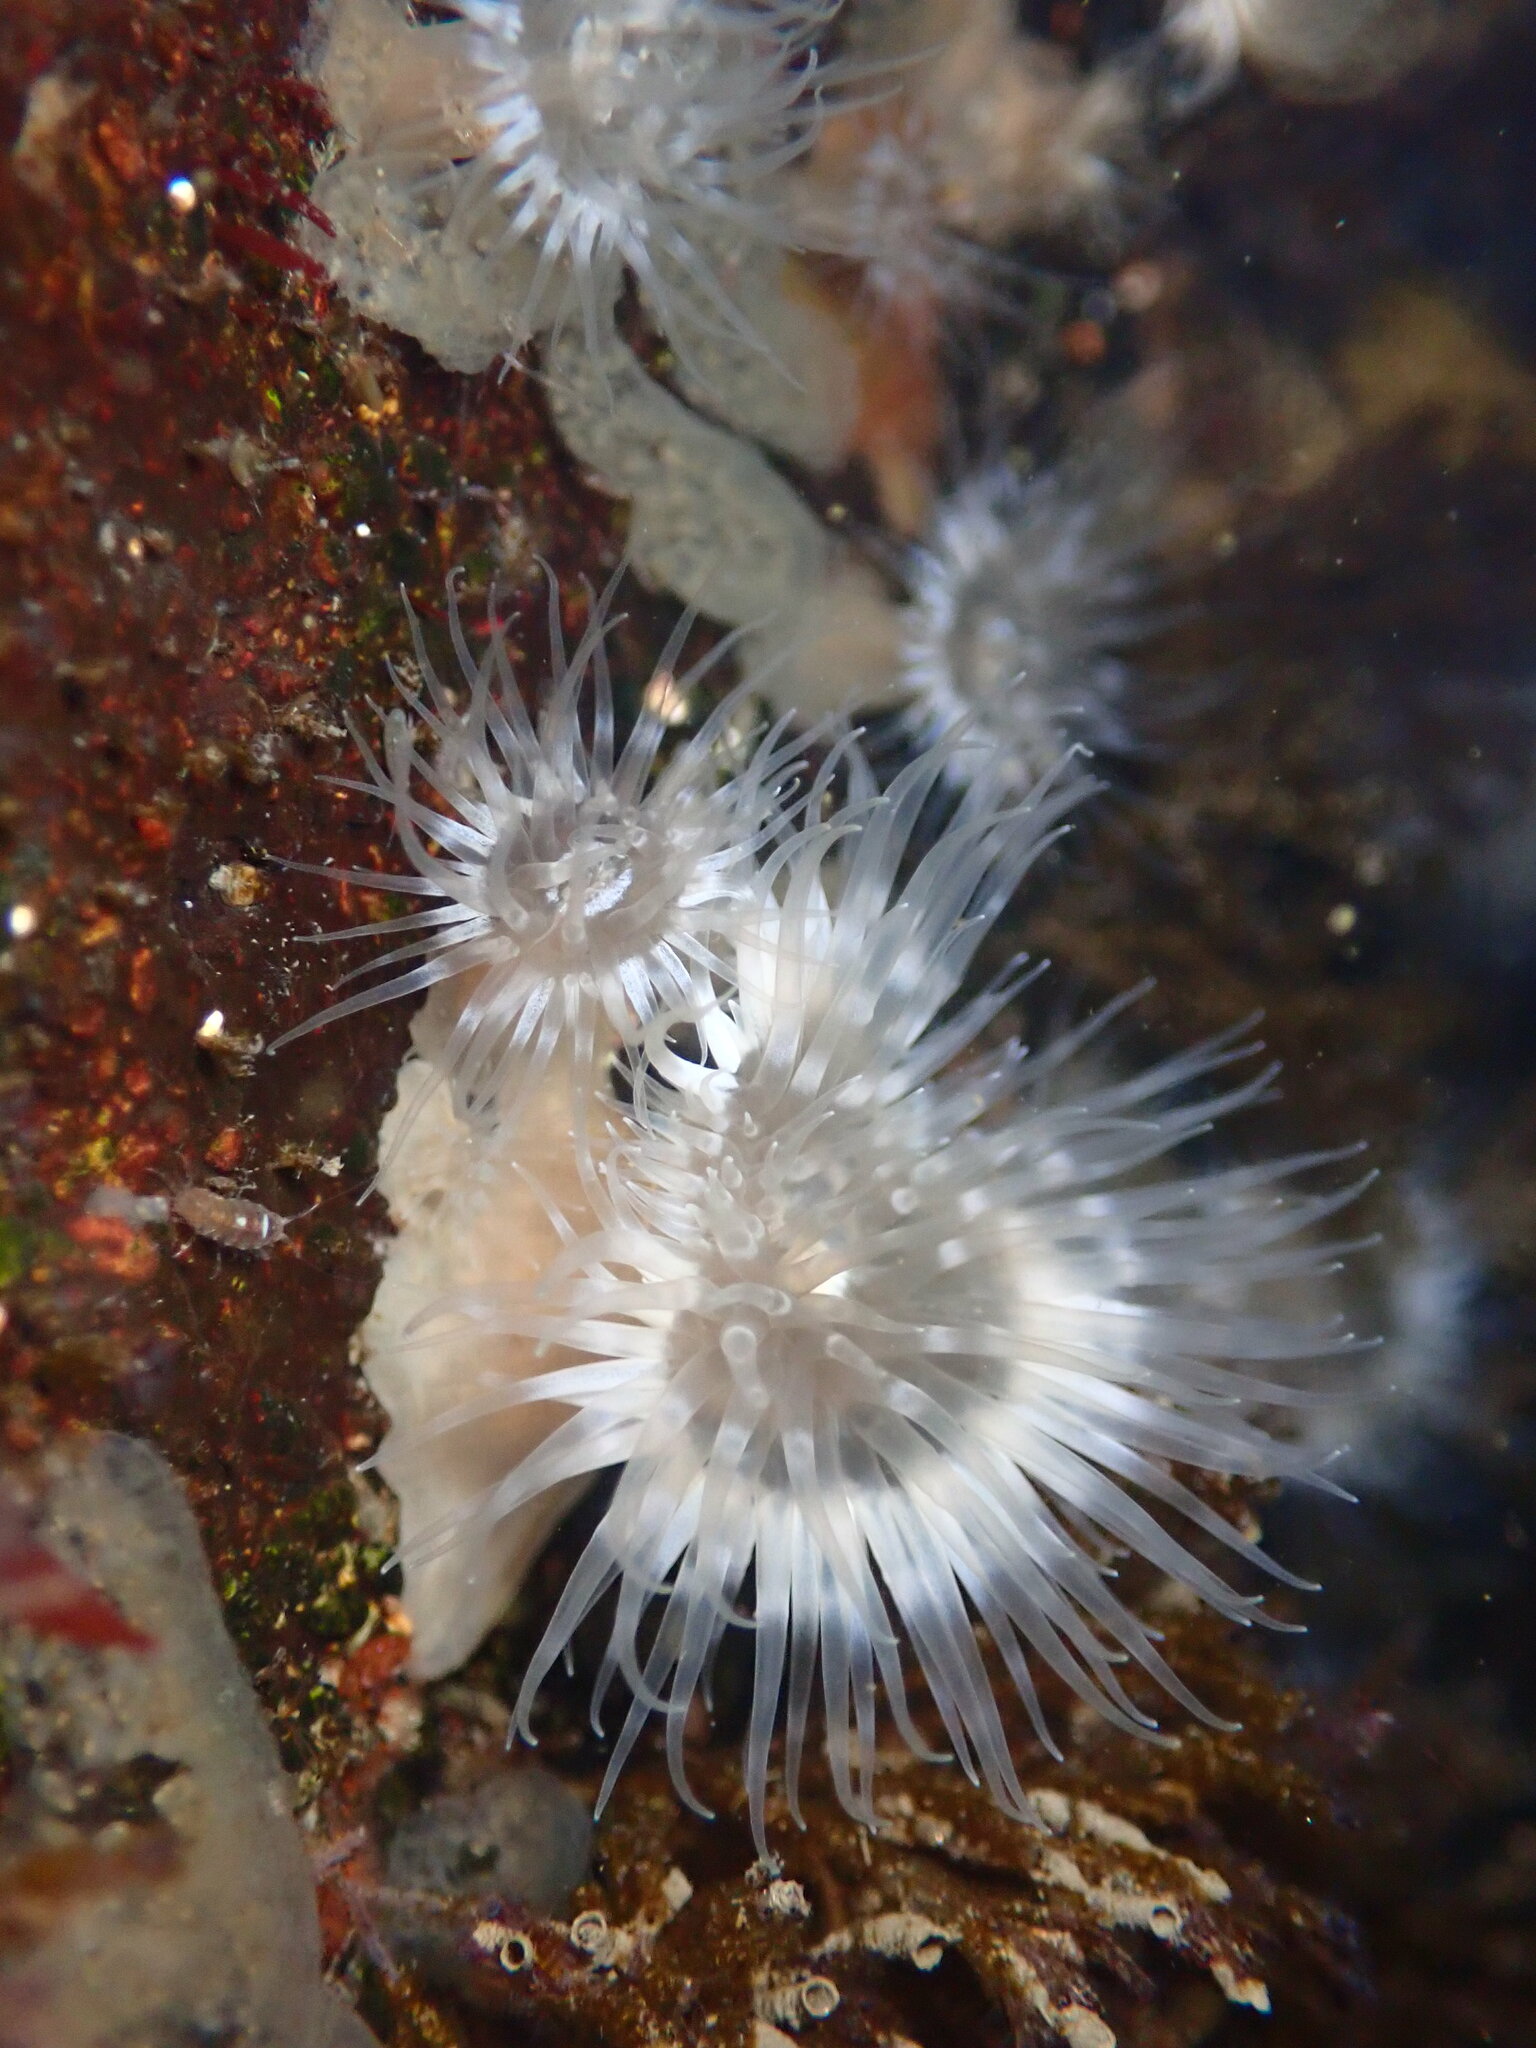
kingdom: Animalia
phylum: Cnidaria
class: Anthozoa
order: Actiniaria
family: Metridiidae
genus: Metridium
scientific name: Metridium senile
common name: Clonal plumose anemone
